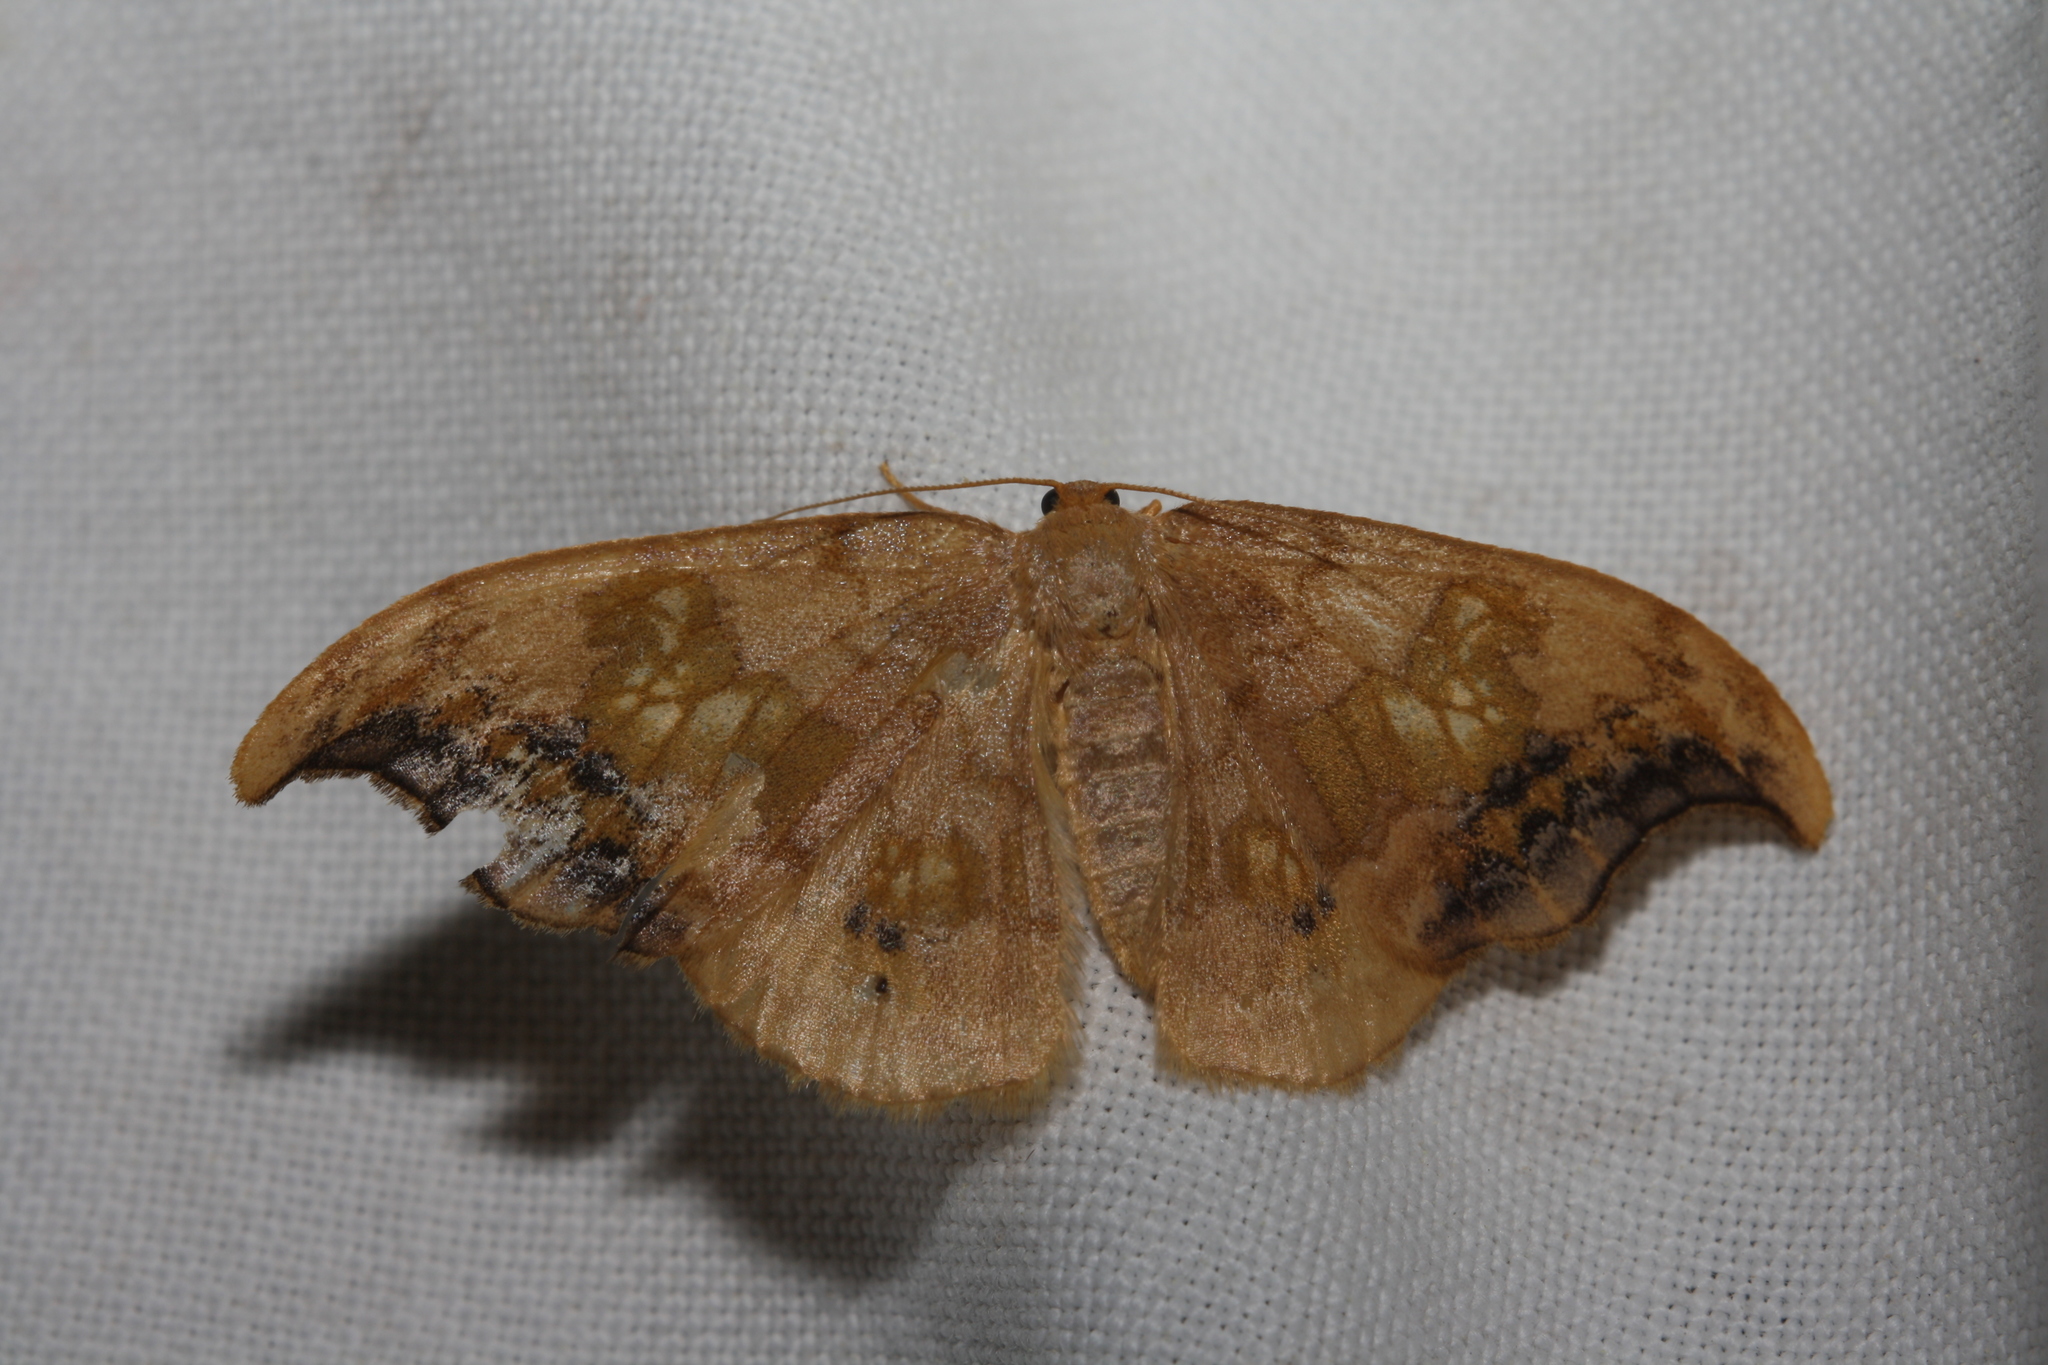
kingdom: Animalia
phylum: Arthropoda
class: Insecta
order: Lepidoptera
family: Drepanidae
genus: Sabra
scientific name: Sabra harpagula
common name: Scarce hook-tip
